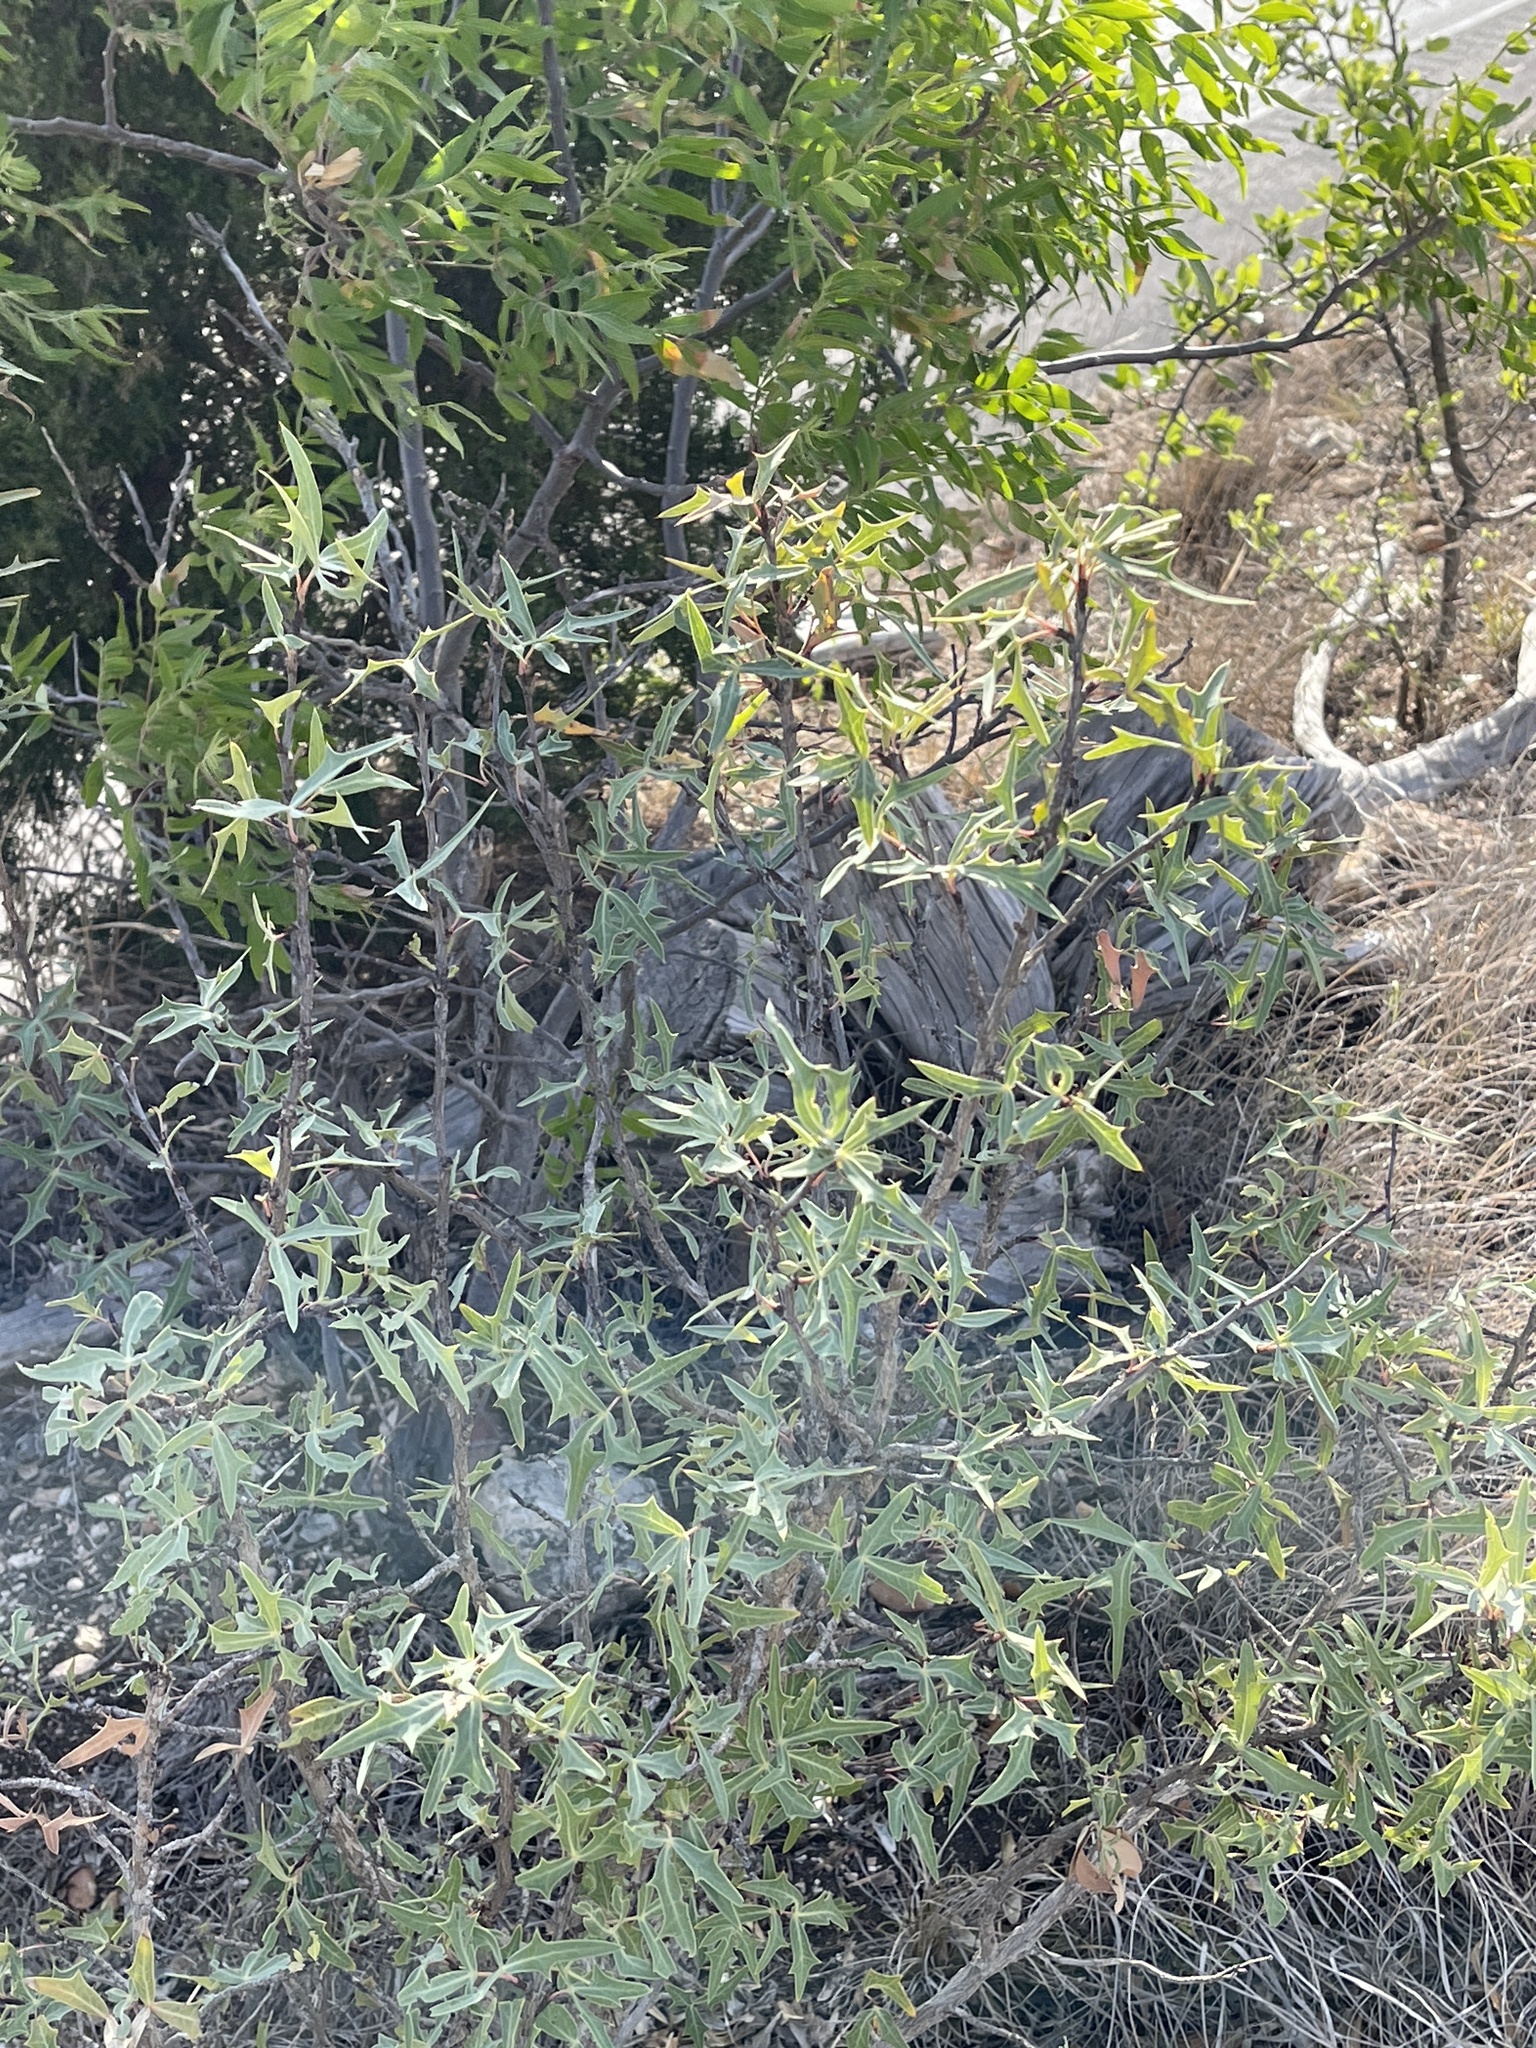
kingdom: Plantae
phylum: Tracheophyta
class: Magnoliopsida
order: Ranunculales
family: Berberidaceae
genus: Alloberberis
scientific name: Alloberberis trifoliolata
